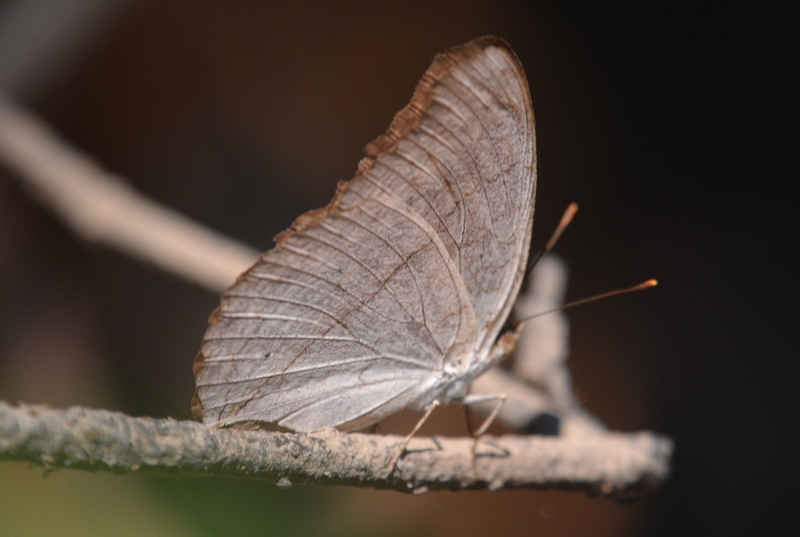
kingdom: Animalia
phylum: Arthropoda
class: Insecta
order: Lepidoptera
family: Nymphalidae
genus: Junonia
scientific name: Junonia atlites
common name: Grey pansy
